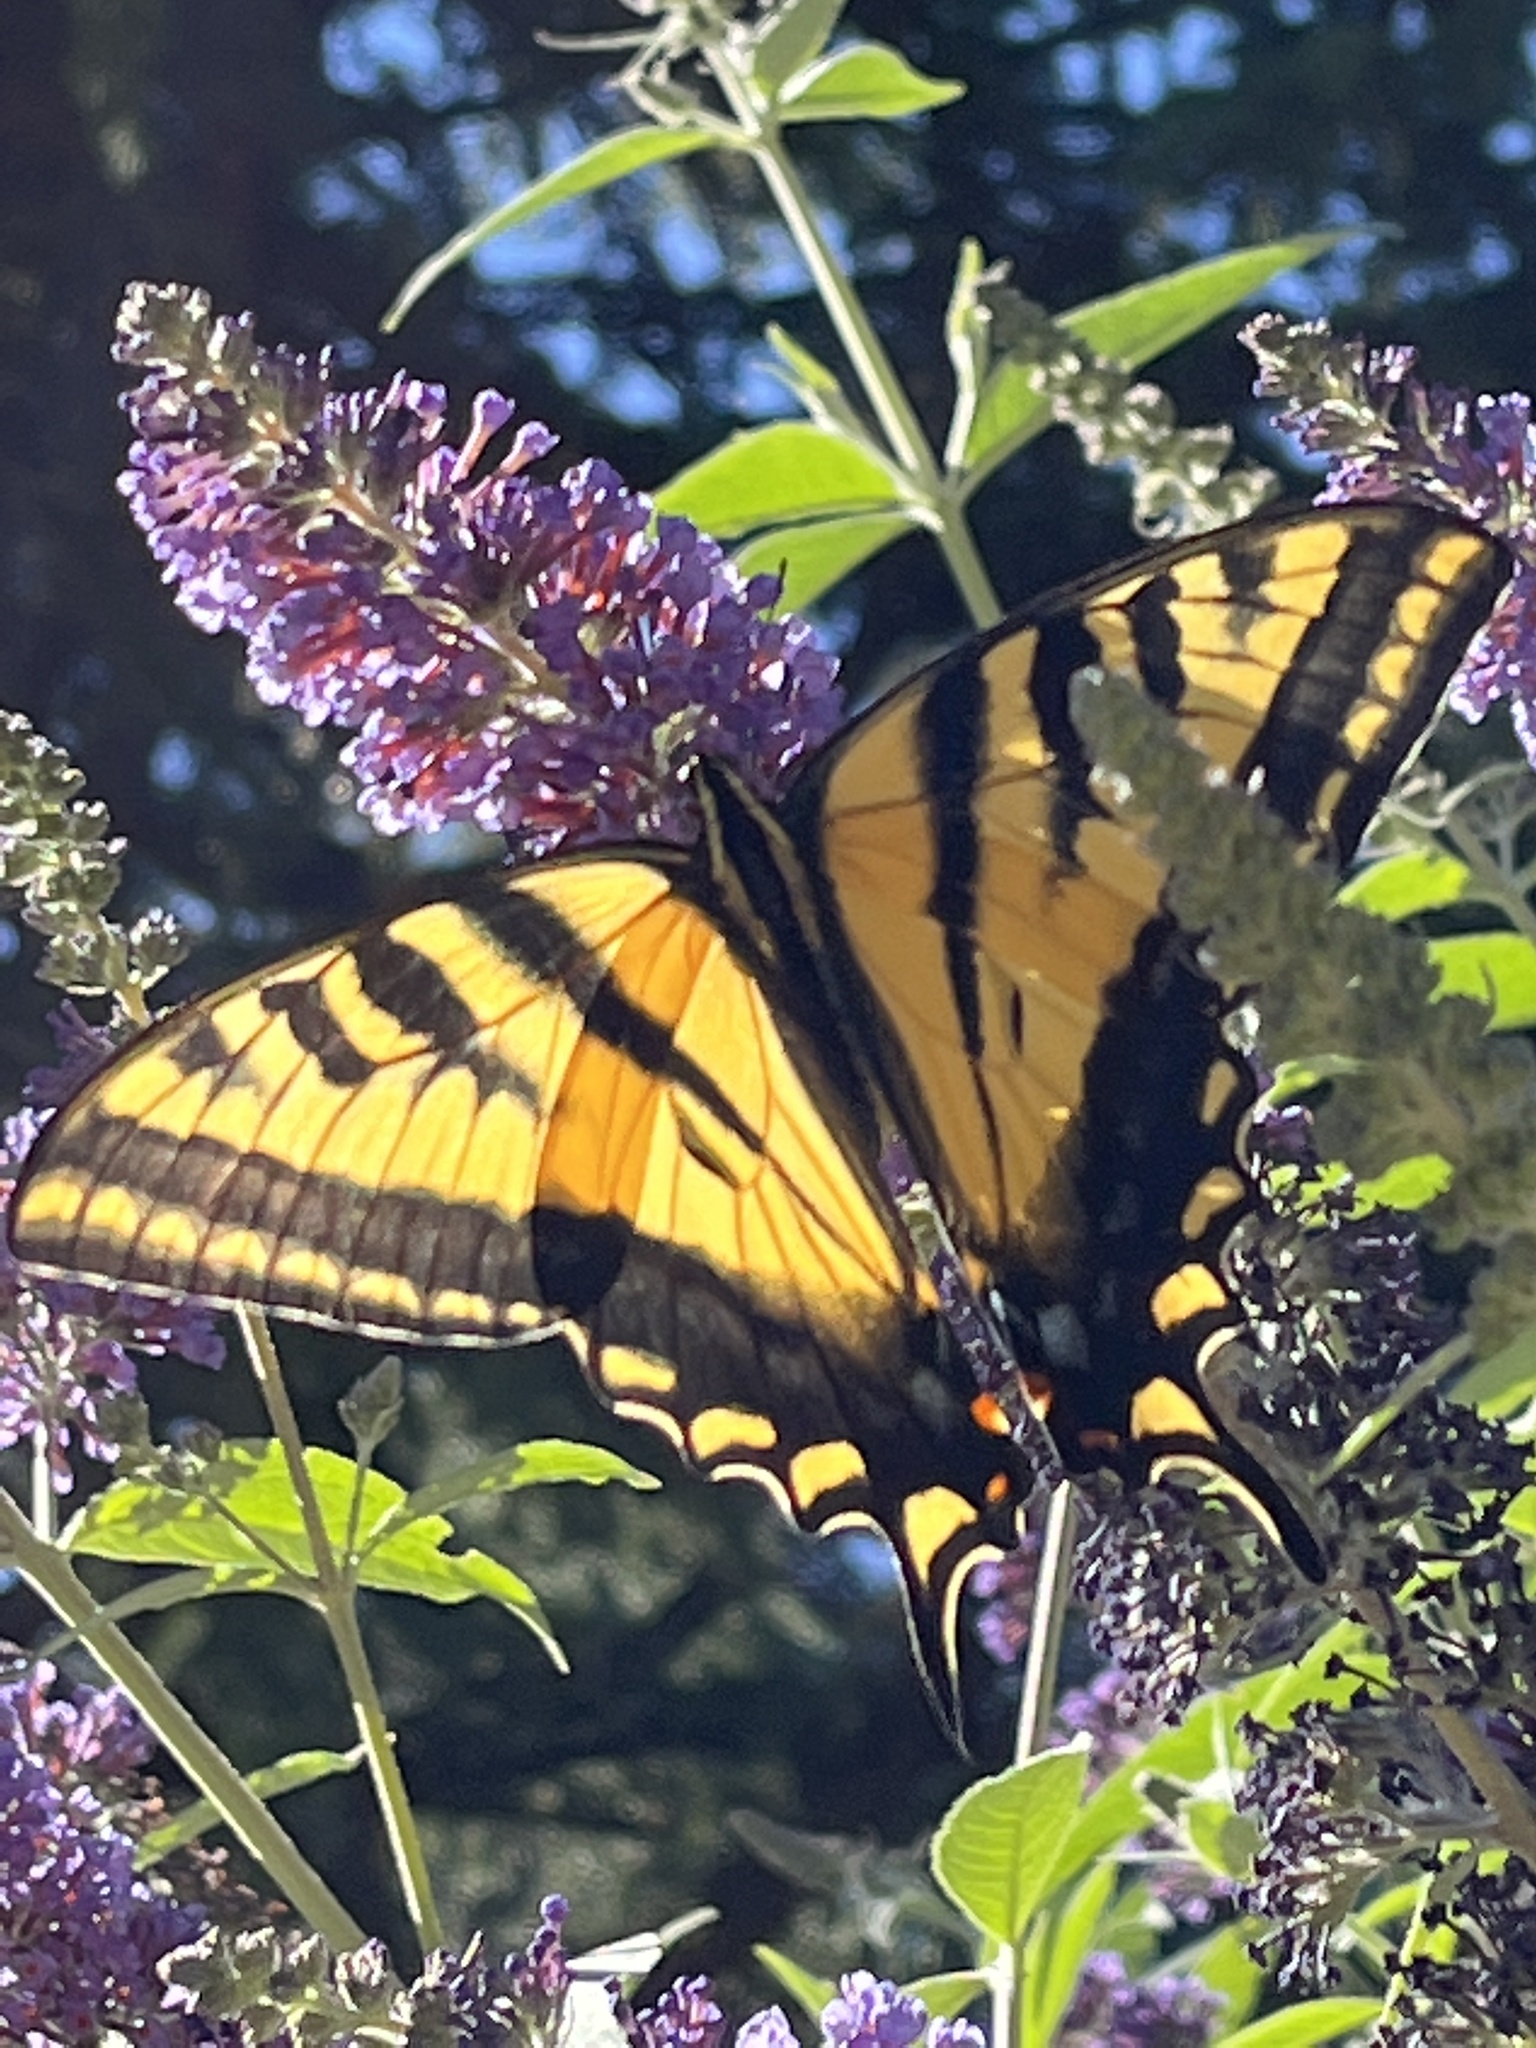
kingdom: Animalia
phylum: Arthropoda
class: Insecta
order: Lepidoptera
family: Papilionidae
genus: Papilio
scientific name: Papilio rutulus
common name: Western tiger swallowtail
